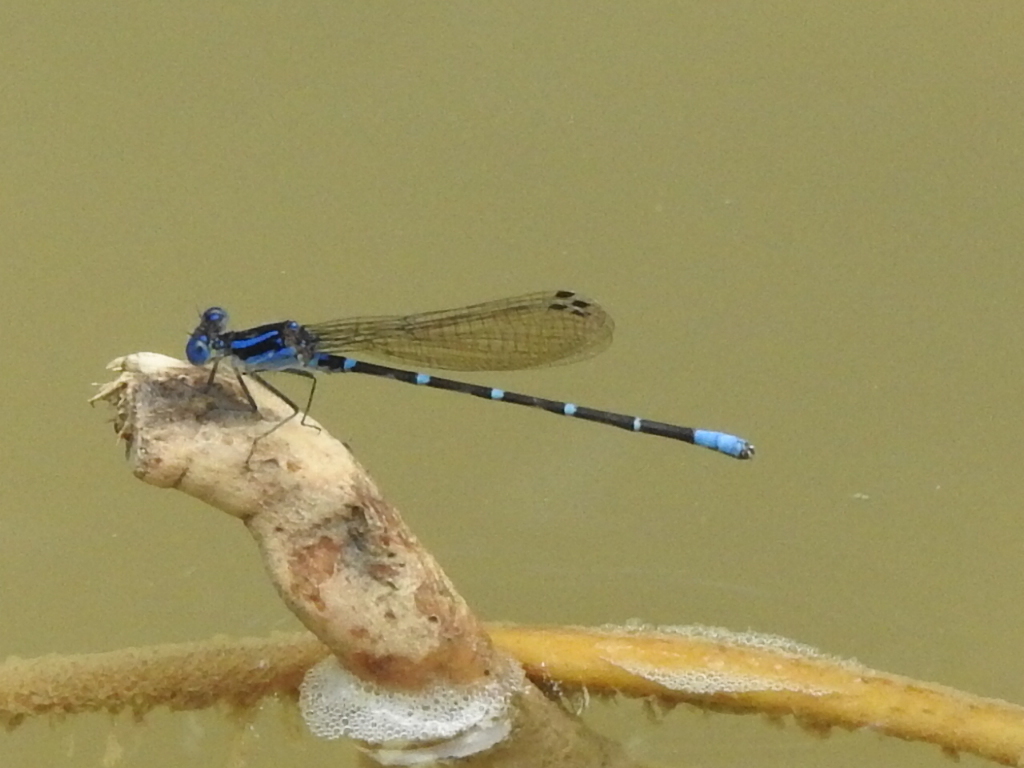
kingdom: Animalia
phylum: Arthropoda
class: Insecta
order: Odonata
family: Coenagrionidae
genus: Argia
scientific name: Argia sedula
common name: Blue-ringed dancer
